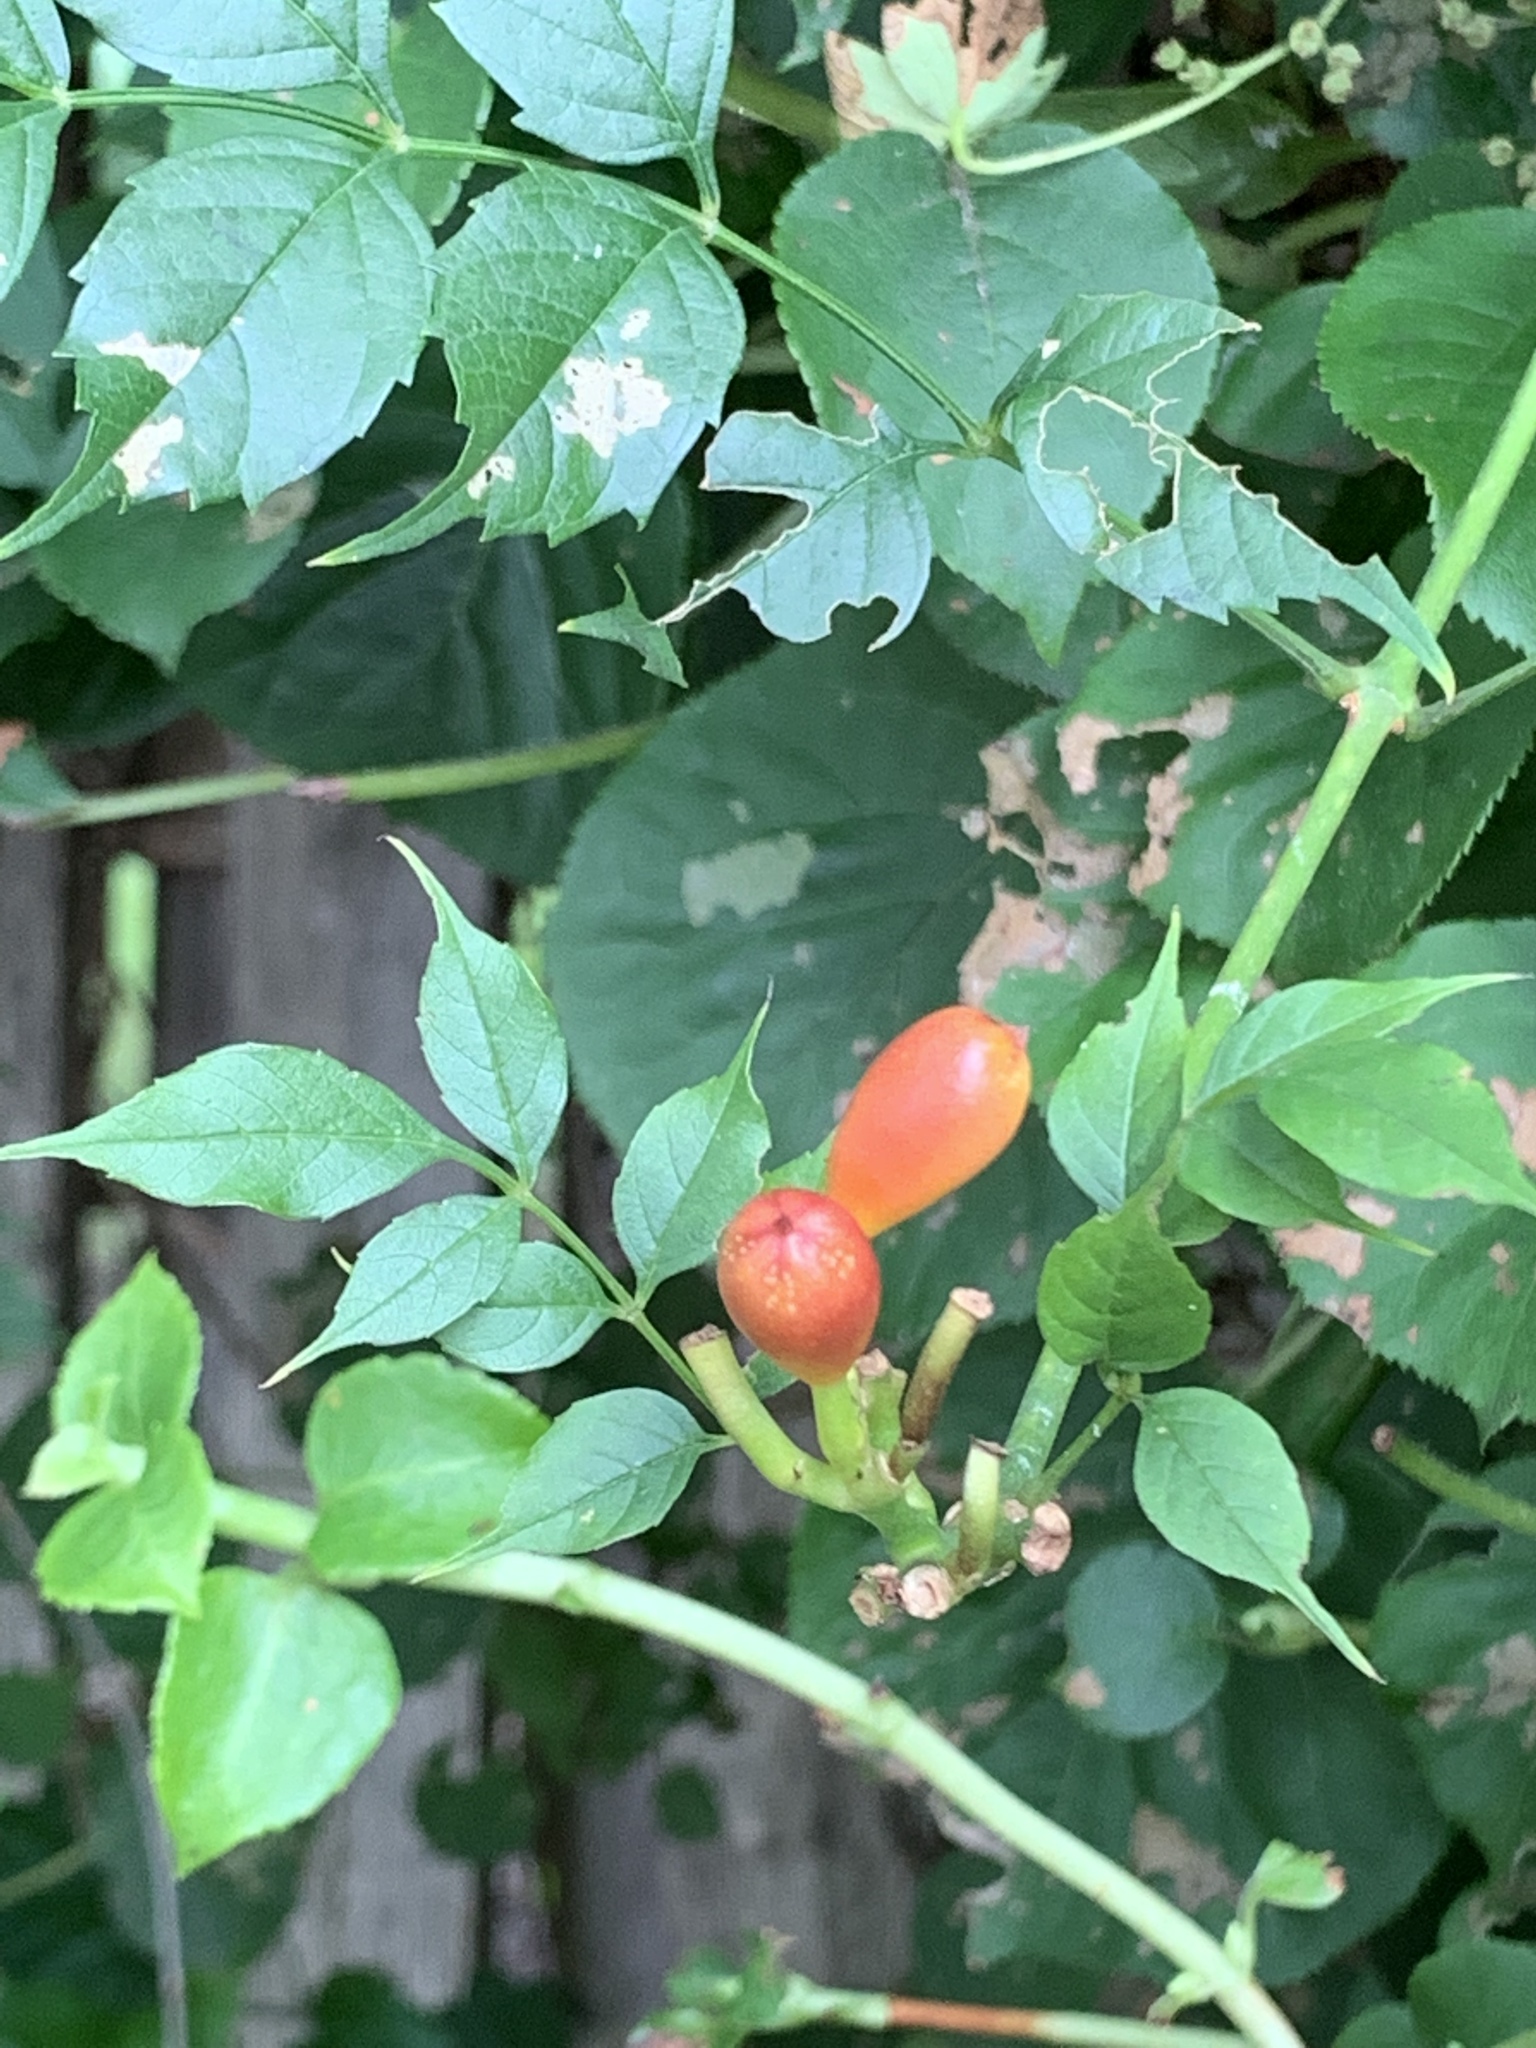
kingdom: Plantae
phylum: Tracheophyta
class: Magnoliopsida
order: Lamiales
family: Bignoniaceae
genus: Campsis
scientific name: Campsis radicans
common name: Trumpet-creeper
